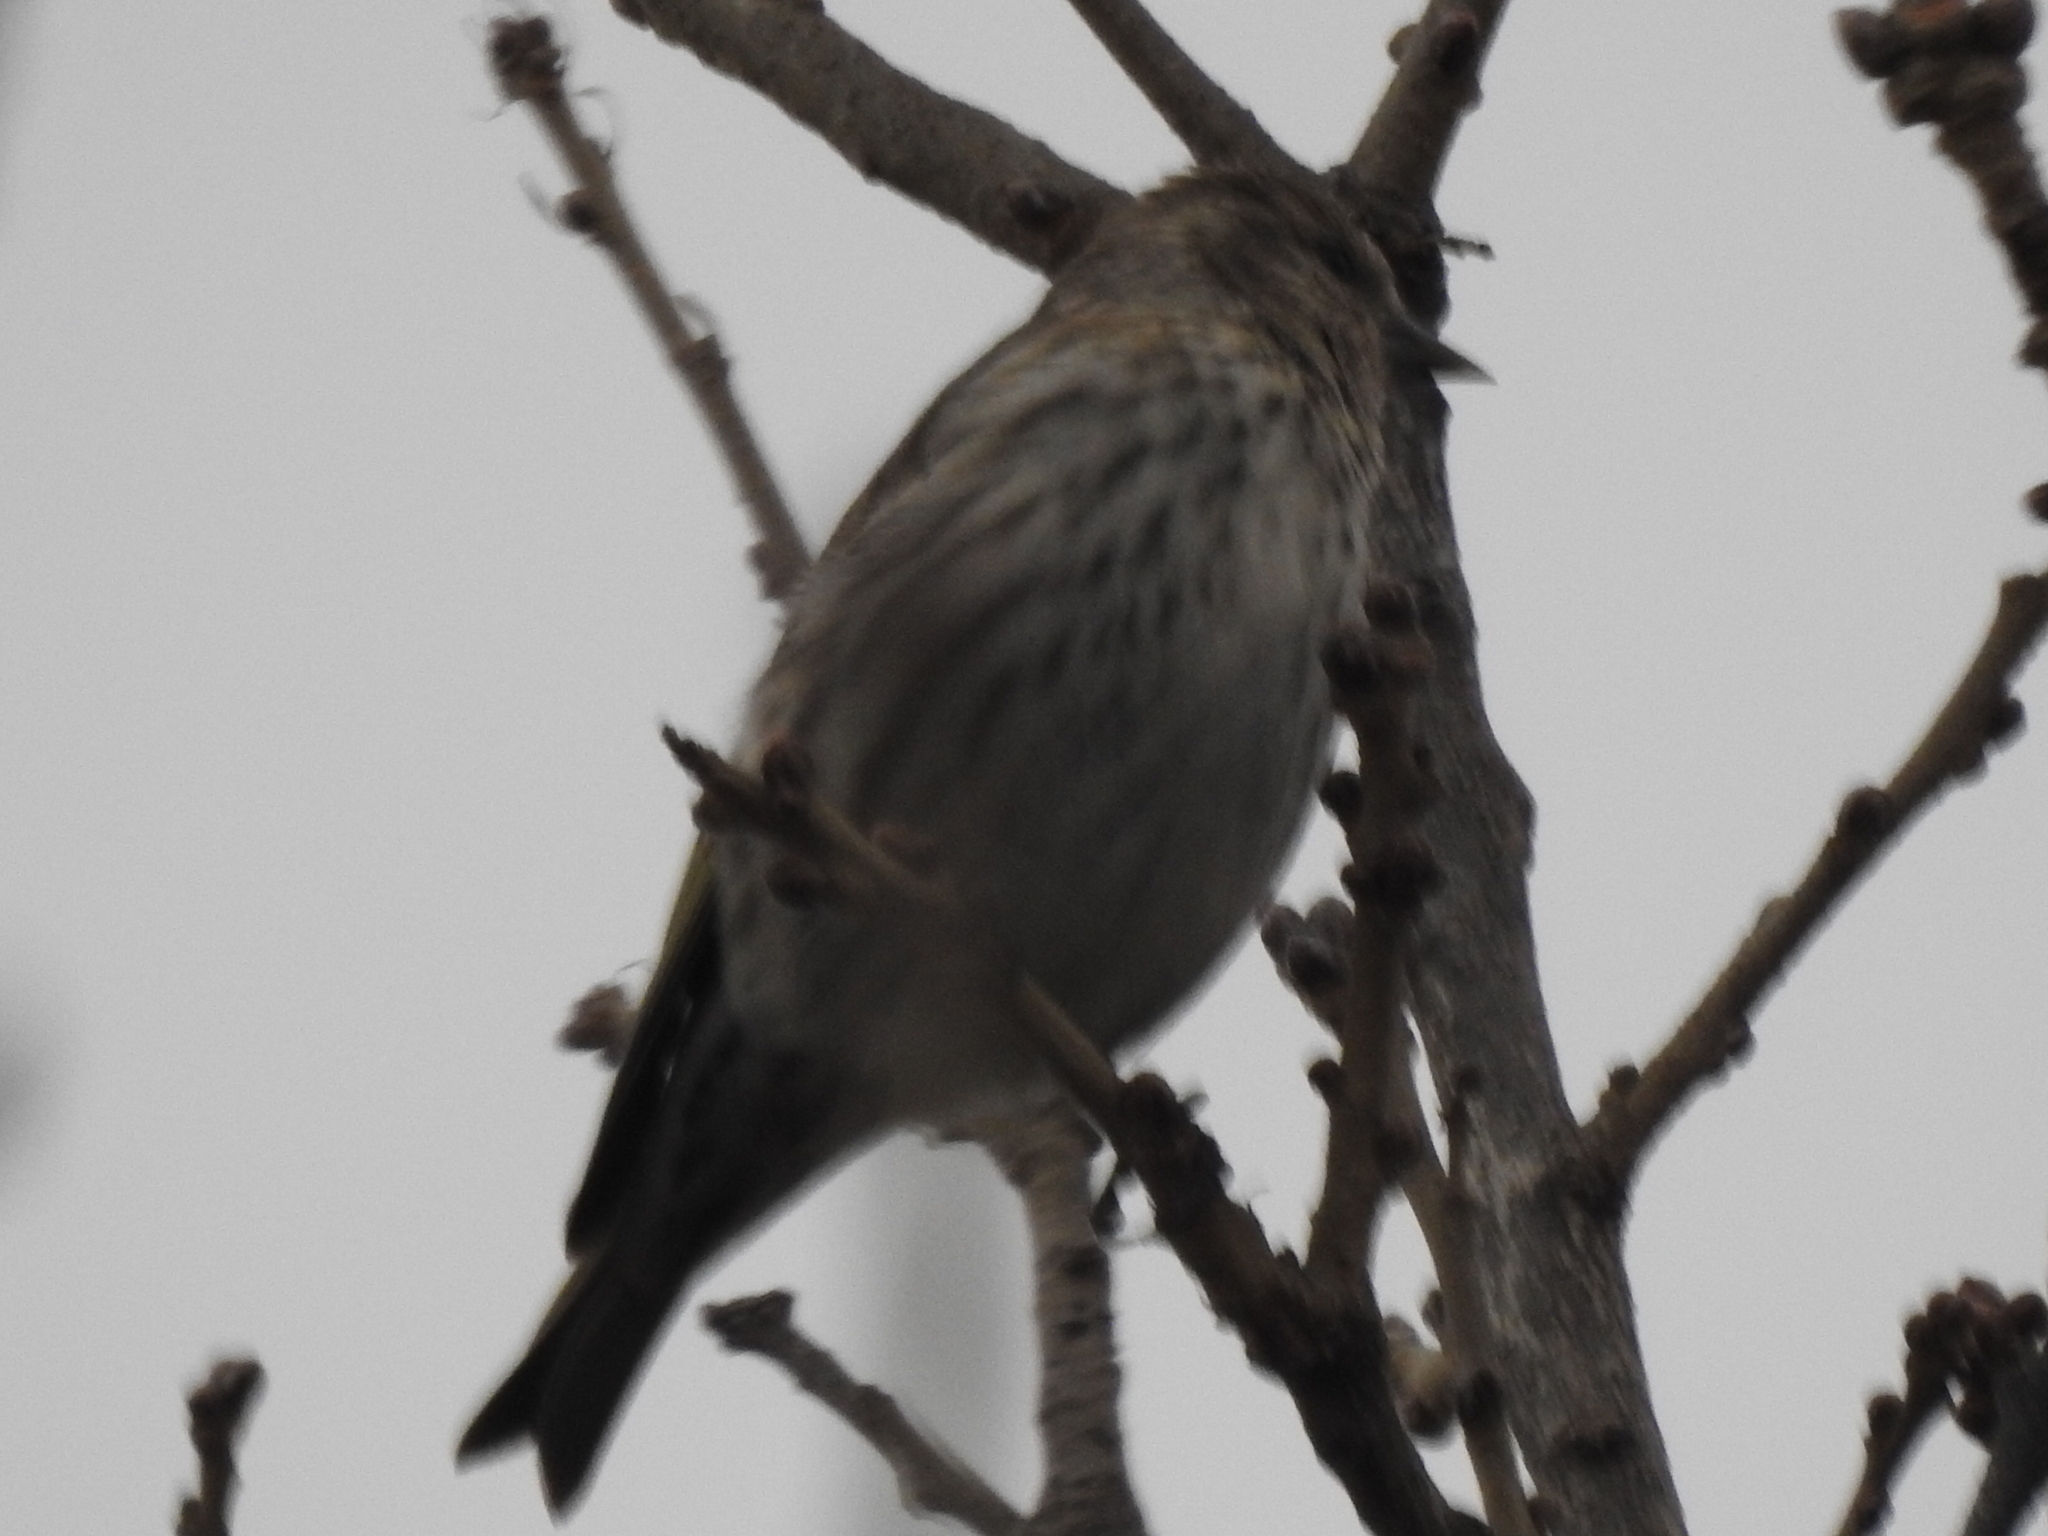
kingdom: Animalia
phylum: Chordata
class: Aves
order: Passeriformes
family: Fringillidae
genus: Spinus
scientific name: Spinus pinus
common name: Pine siskin
